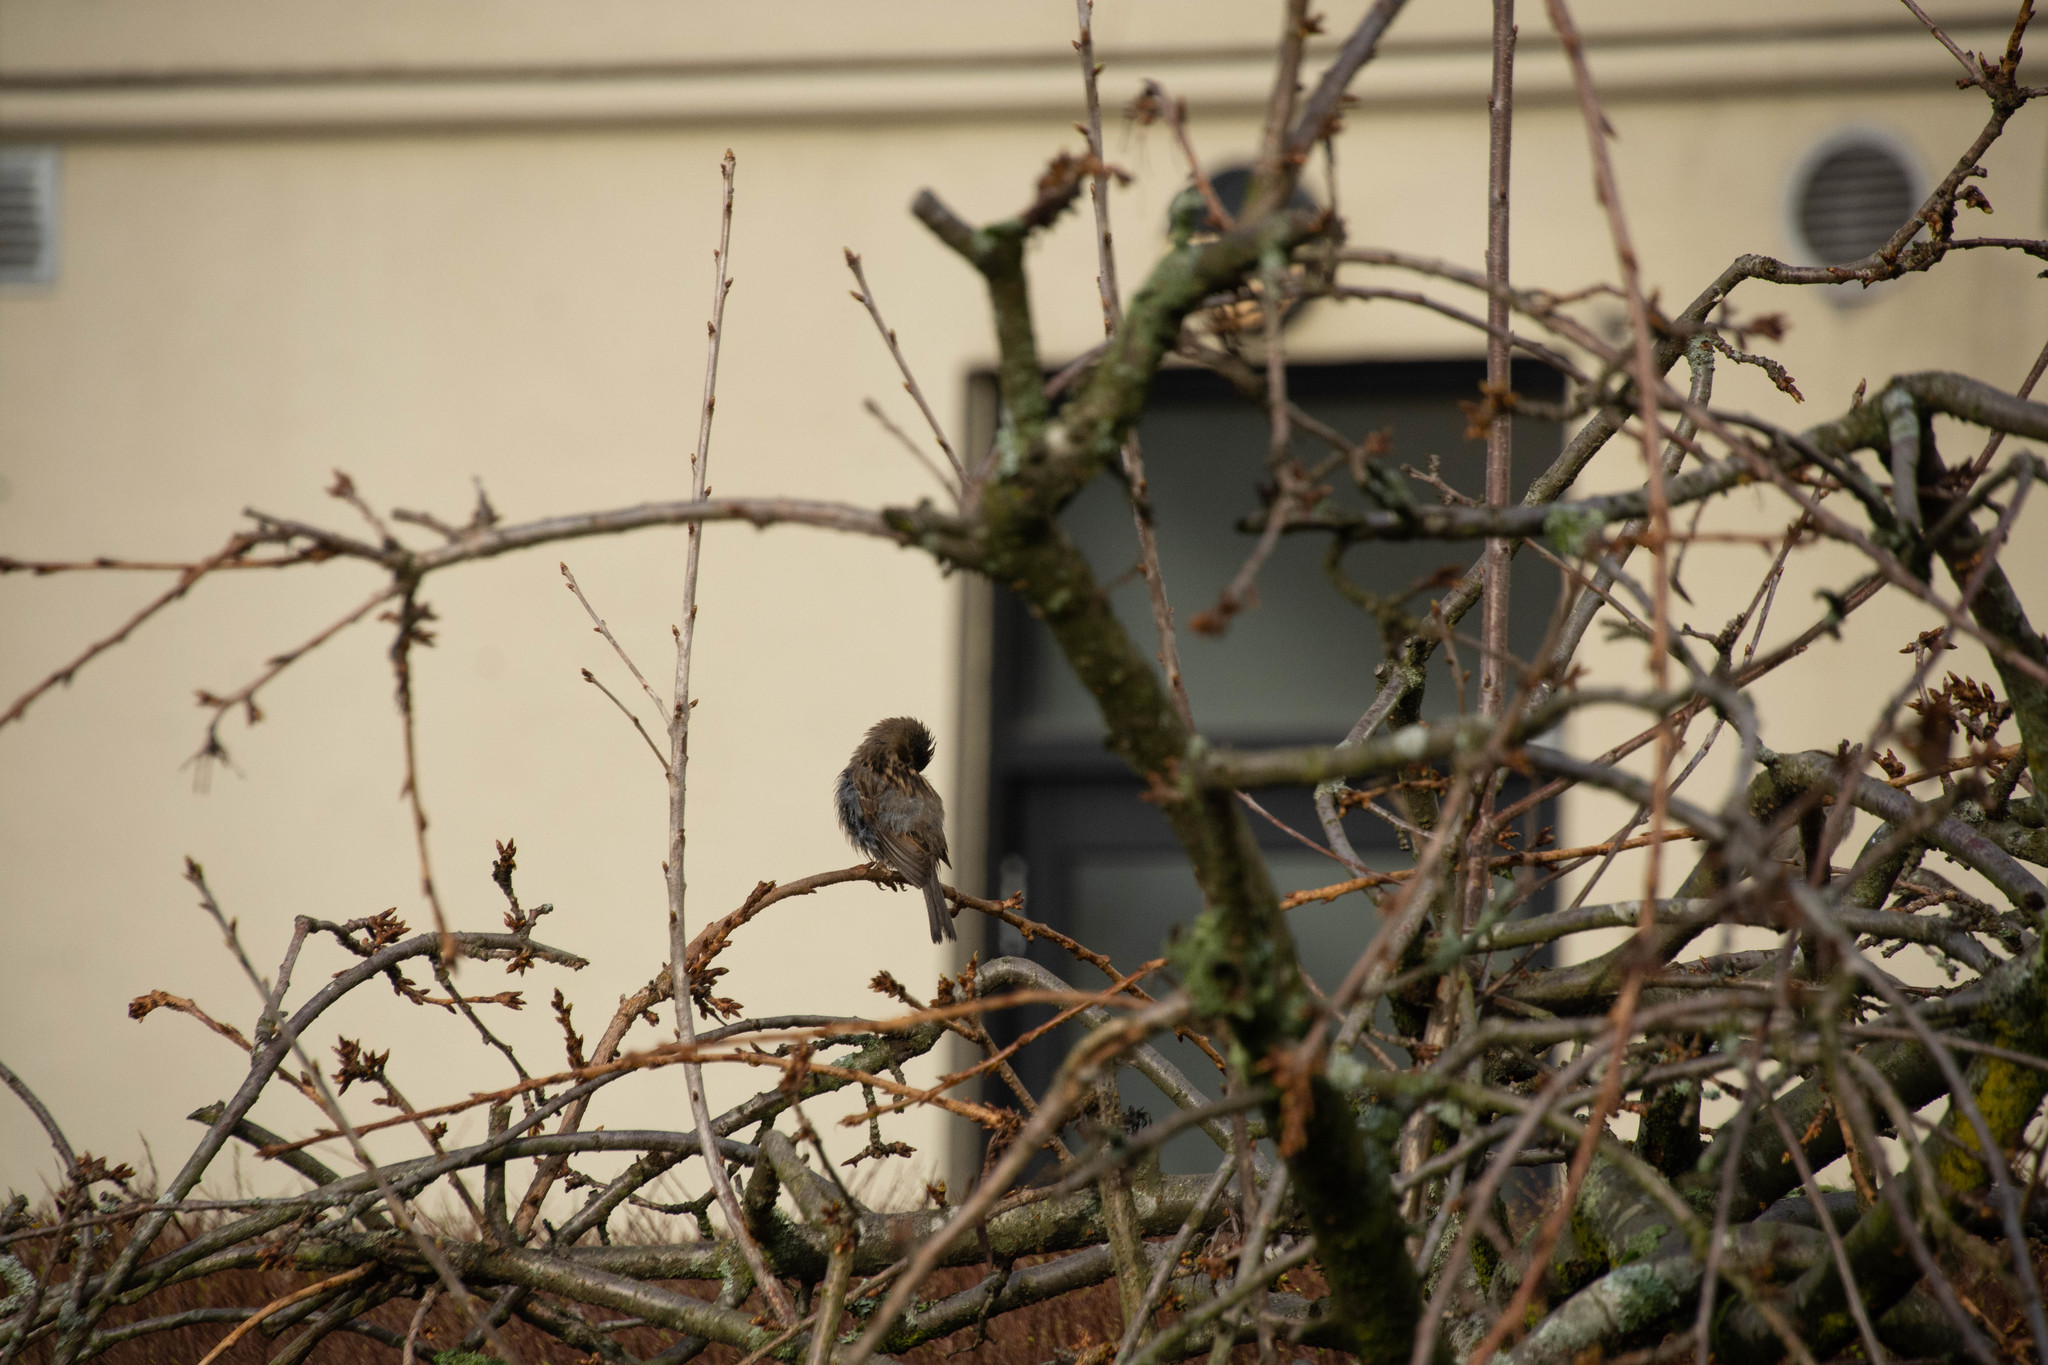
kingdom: Animalia
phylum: Chordata
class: Aves
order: Passeriformes
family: Passeridae
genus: Passer
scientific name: Passer domesticus
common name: House sparrow
